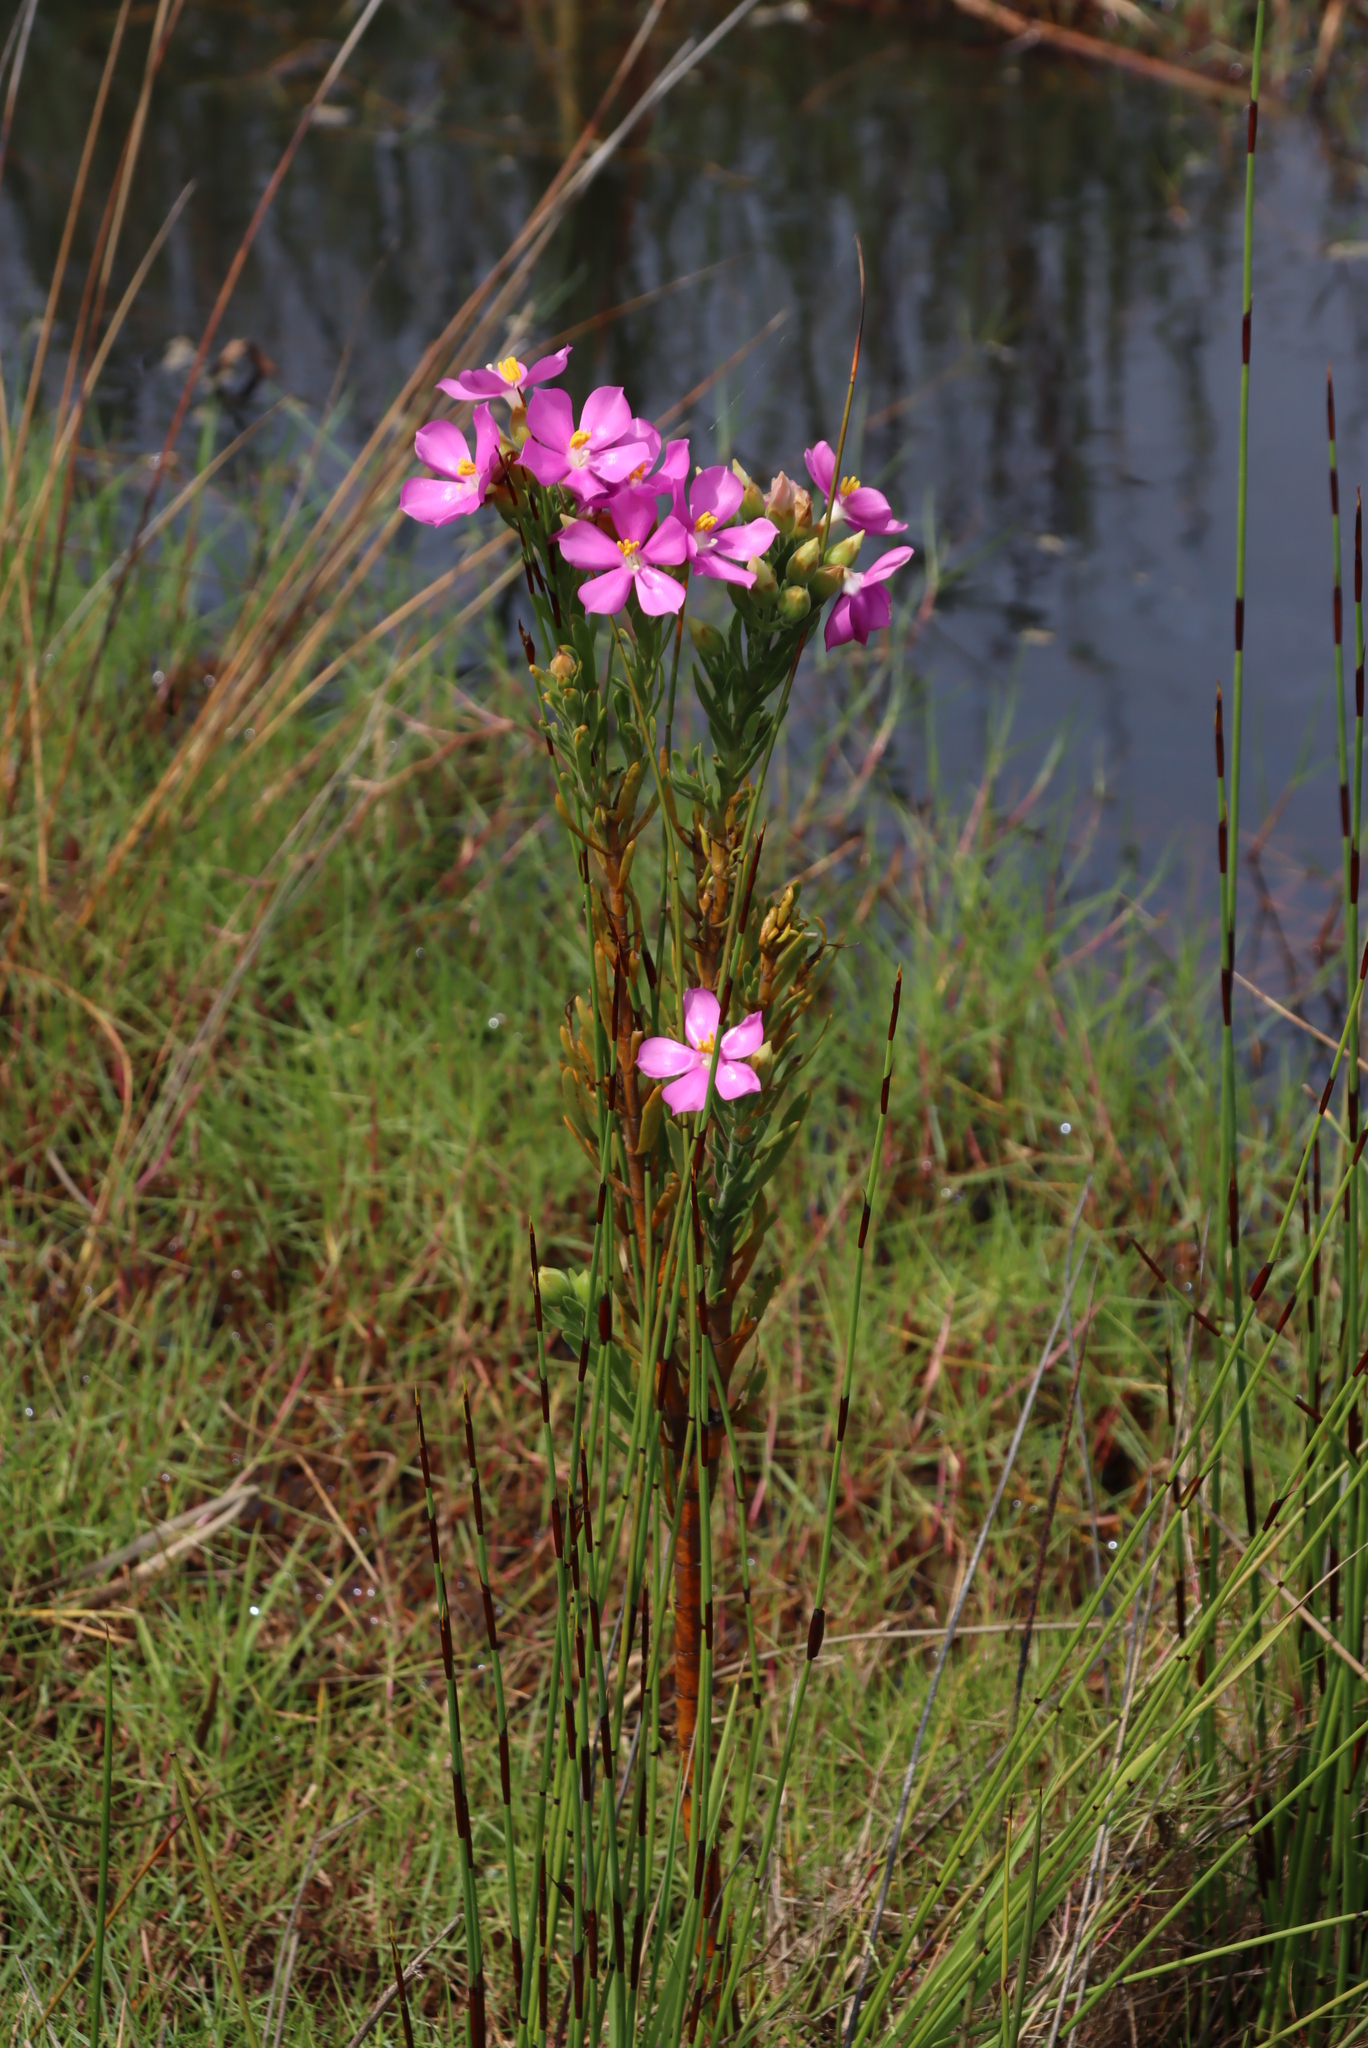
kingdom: Plantae
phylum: Tracheophyta
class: Magnoliopsida
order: Gentianales
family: Gentianaceae
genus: Orphium
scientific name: Orphium frutescens
